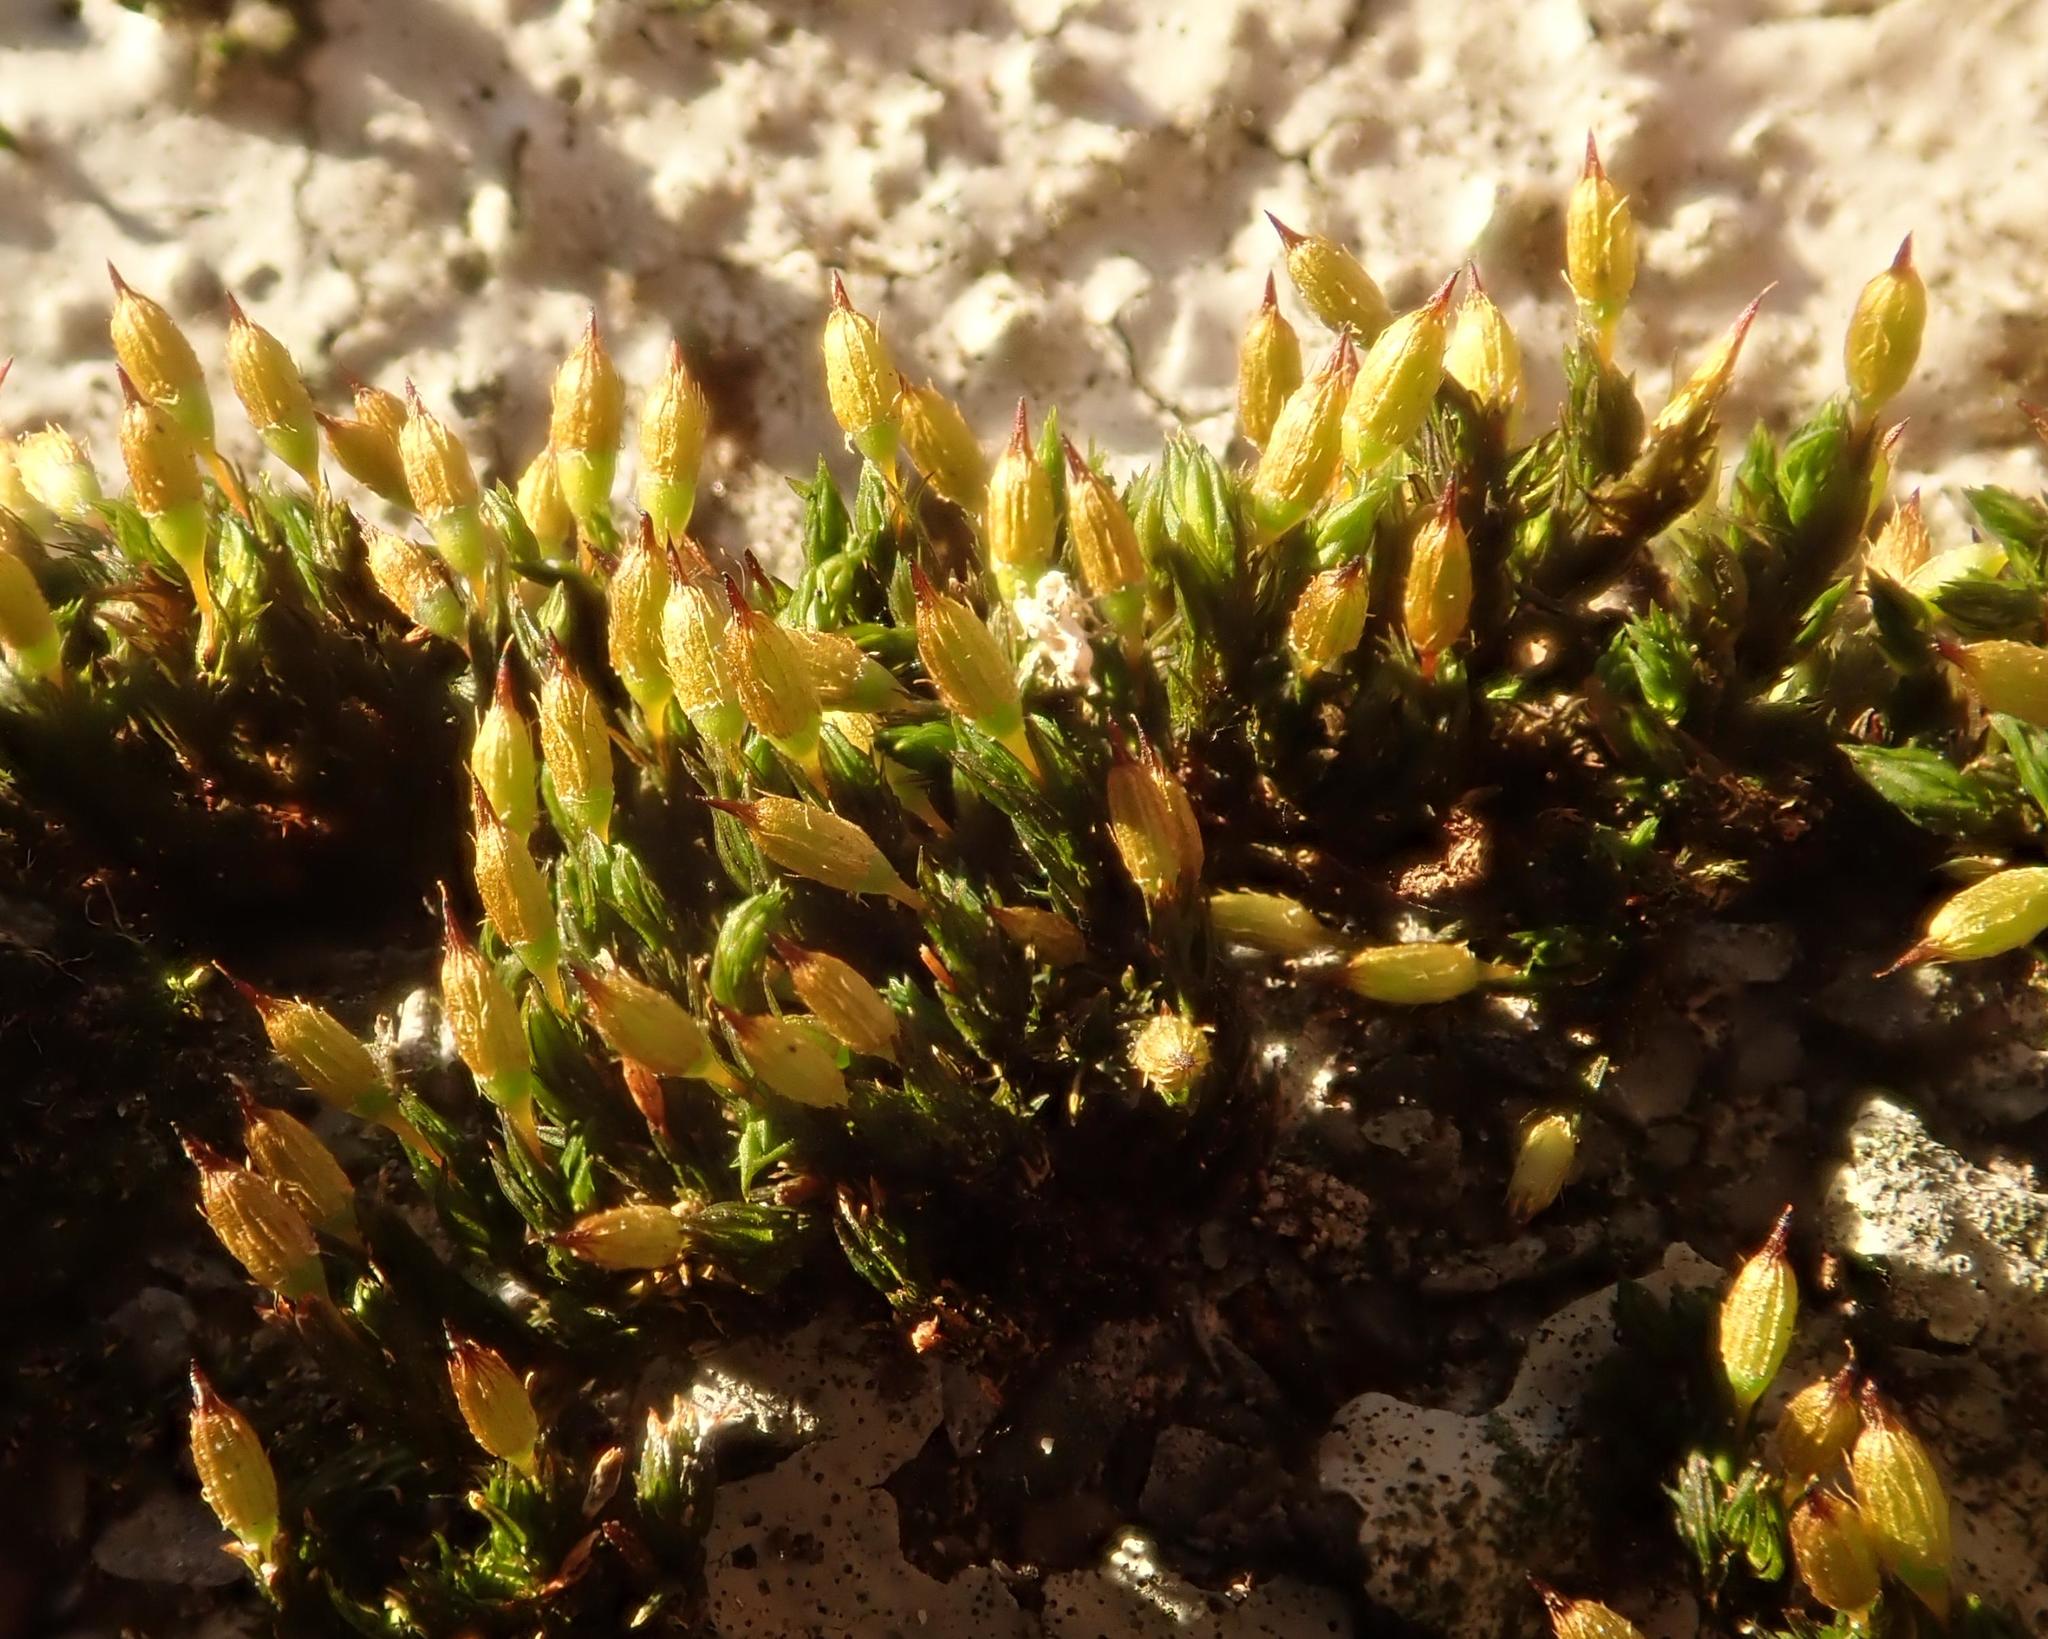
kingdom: Plantae
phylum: Bryophyta
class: Bryopsida
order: Orthotrichales
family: Orthotrichaceae
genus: Orthotrichum
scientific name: Orthotrichum anomalum
